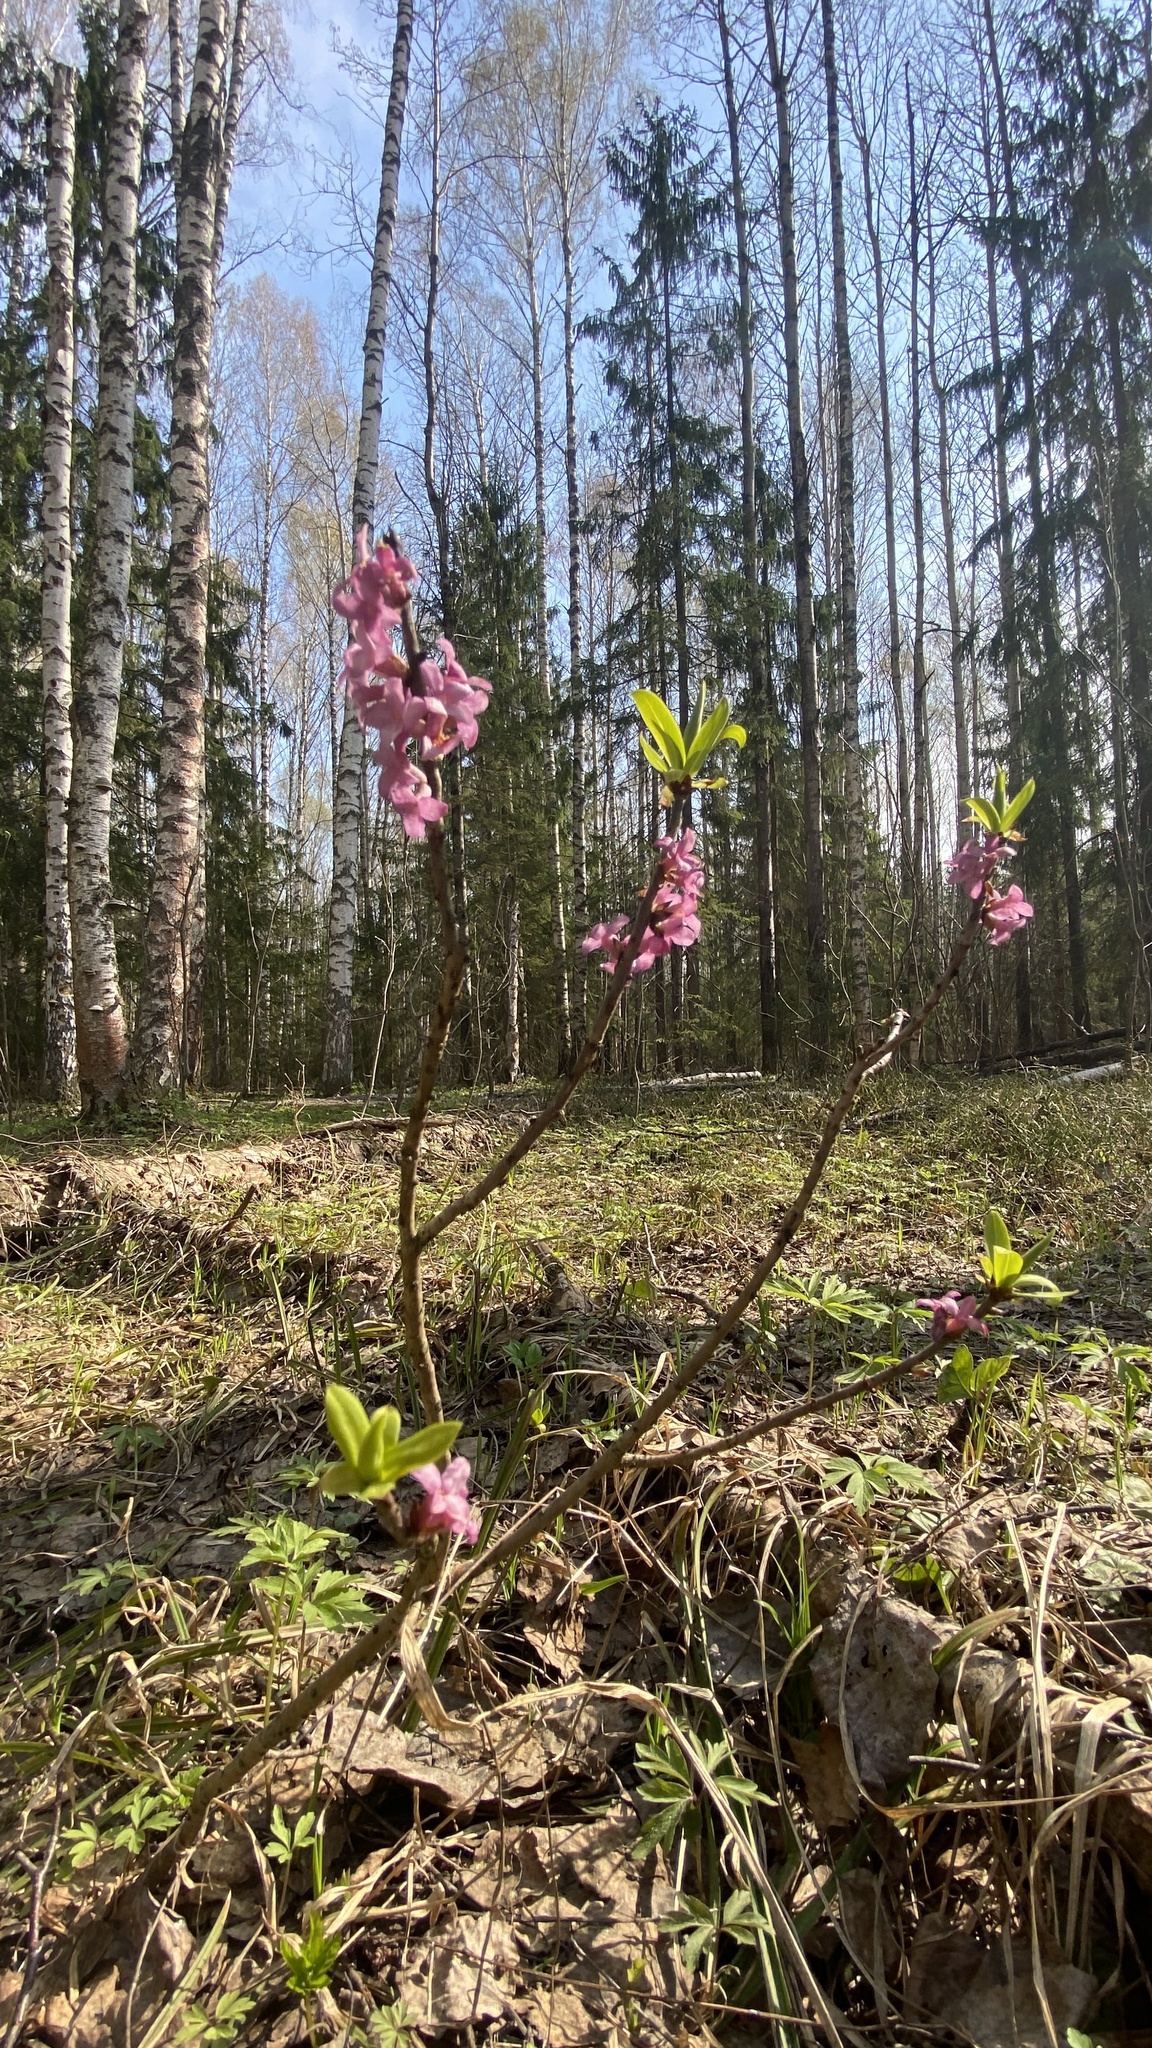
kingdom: Plantae
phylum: Tracheophyta
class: Magnoliopsida
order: Malvales
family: Thymelaeaceae
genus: Daphne
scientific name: Daphne mezereum
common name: Mezereon
